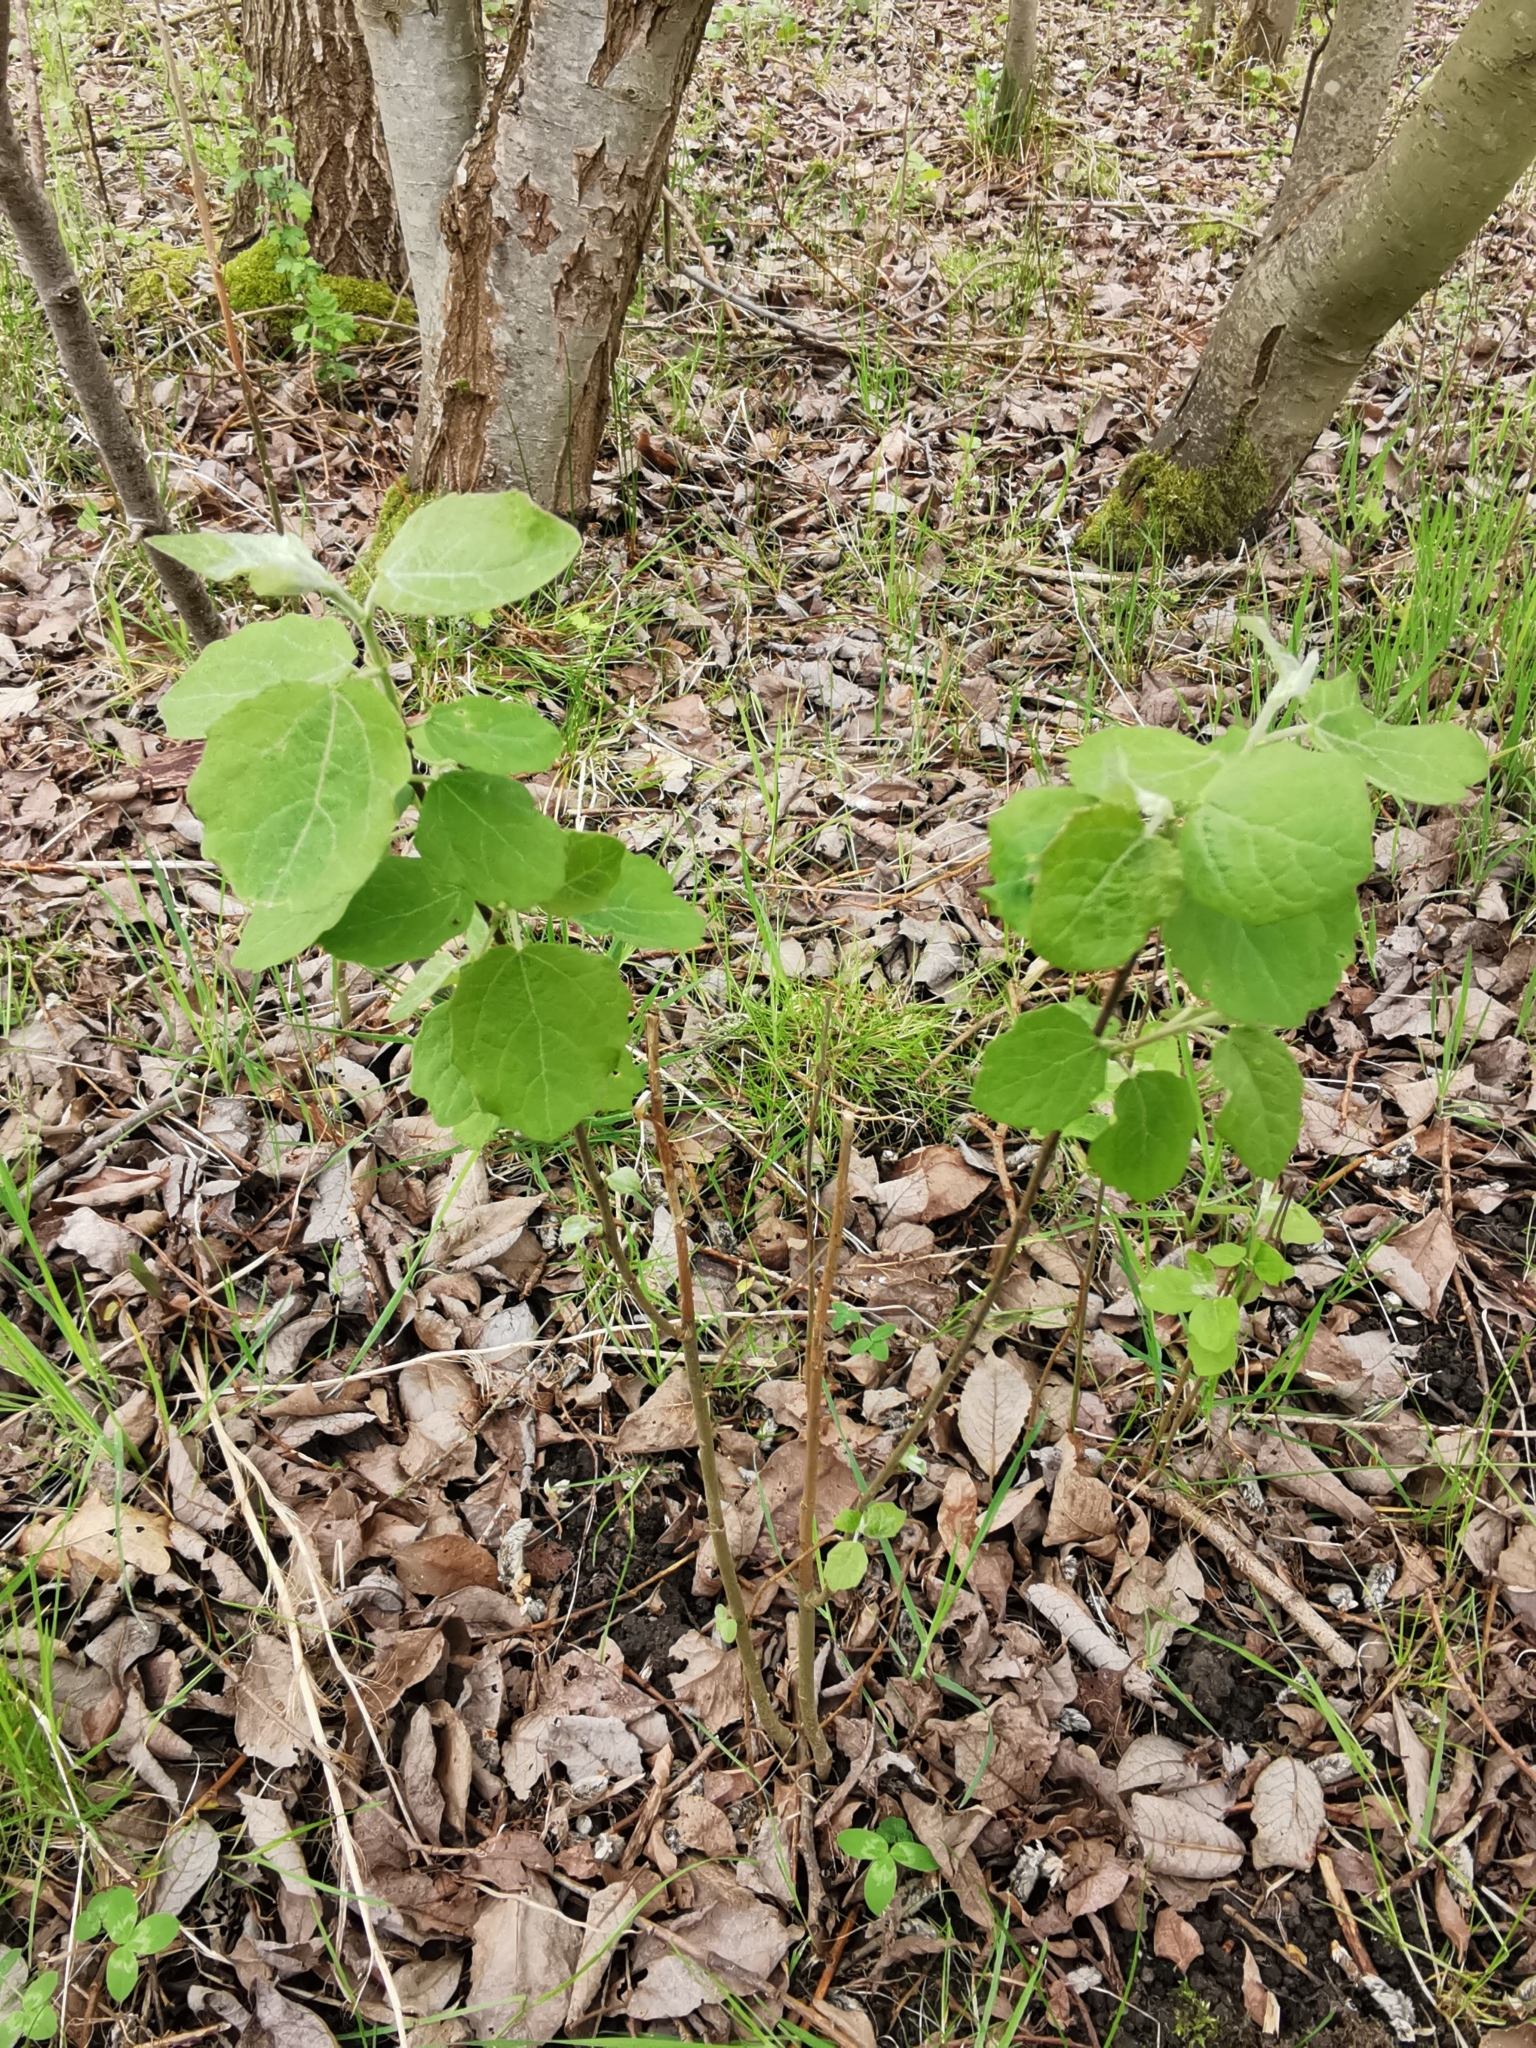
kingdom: Plantae
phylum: Tracheophyta
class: Magnoliopsida
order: Malpighiales
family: Salicaceae
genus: Populus
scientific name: Populus tremula
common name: European aspen
